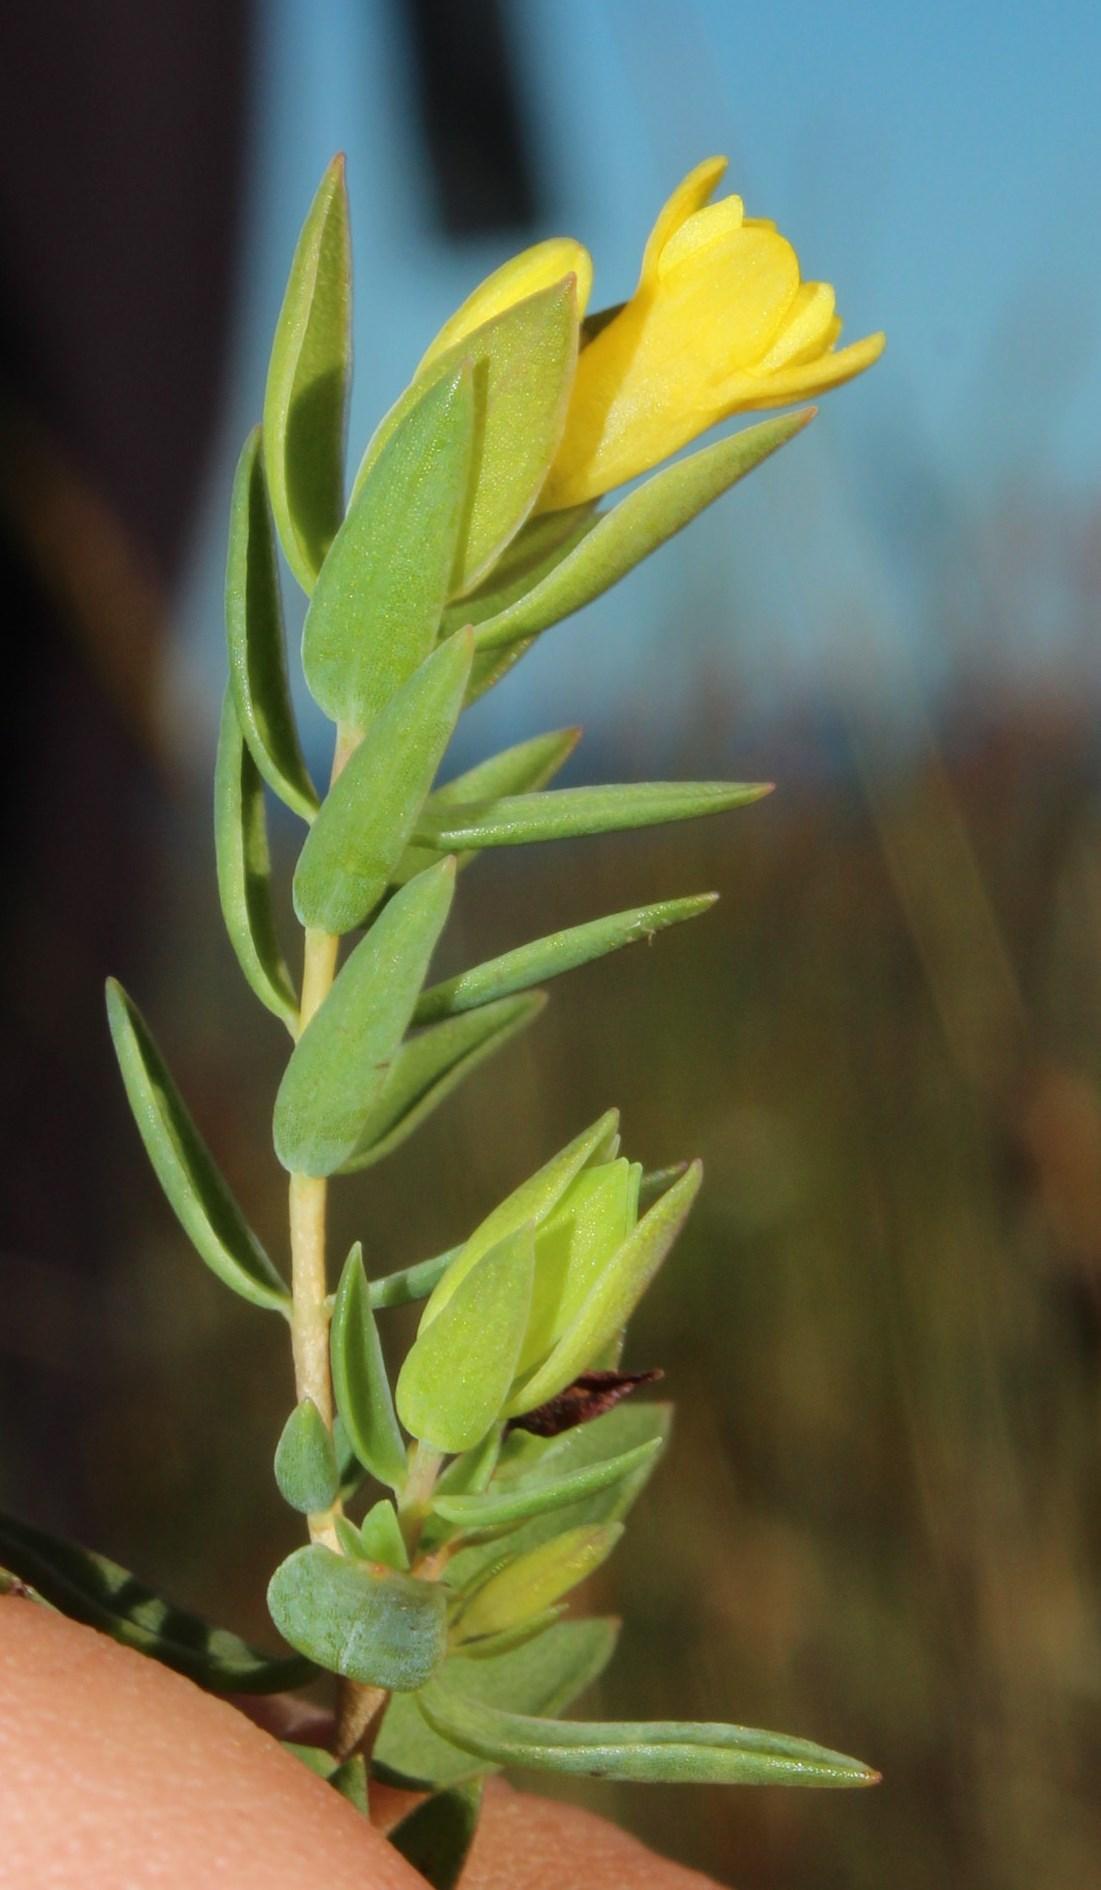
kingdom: Plantae
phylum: Tracheophyta
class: Magnoliopsida
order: Malvales
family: Thymelaeaceae
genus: Gnidia
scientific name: Gnidia juniperifolia
